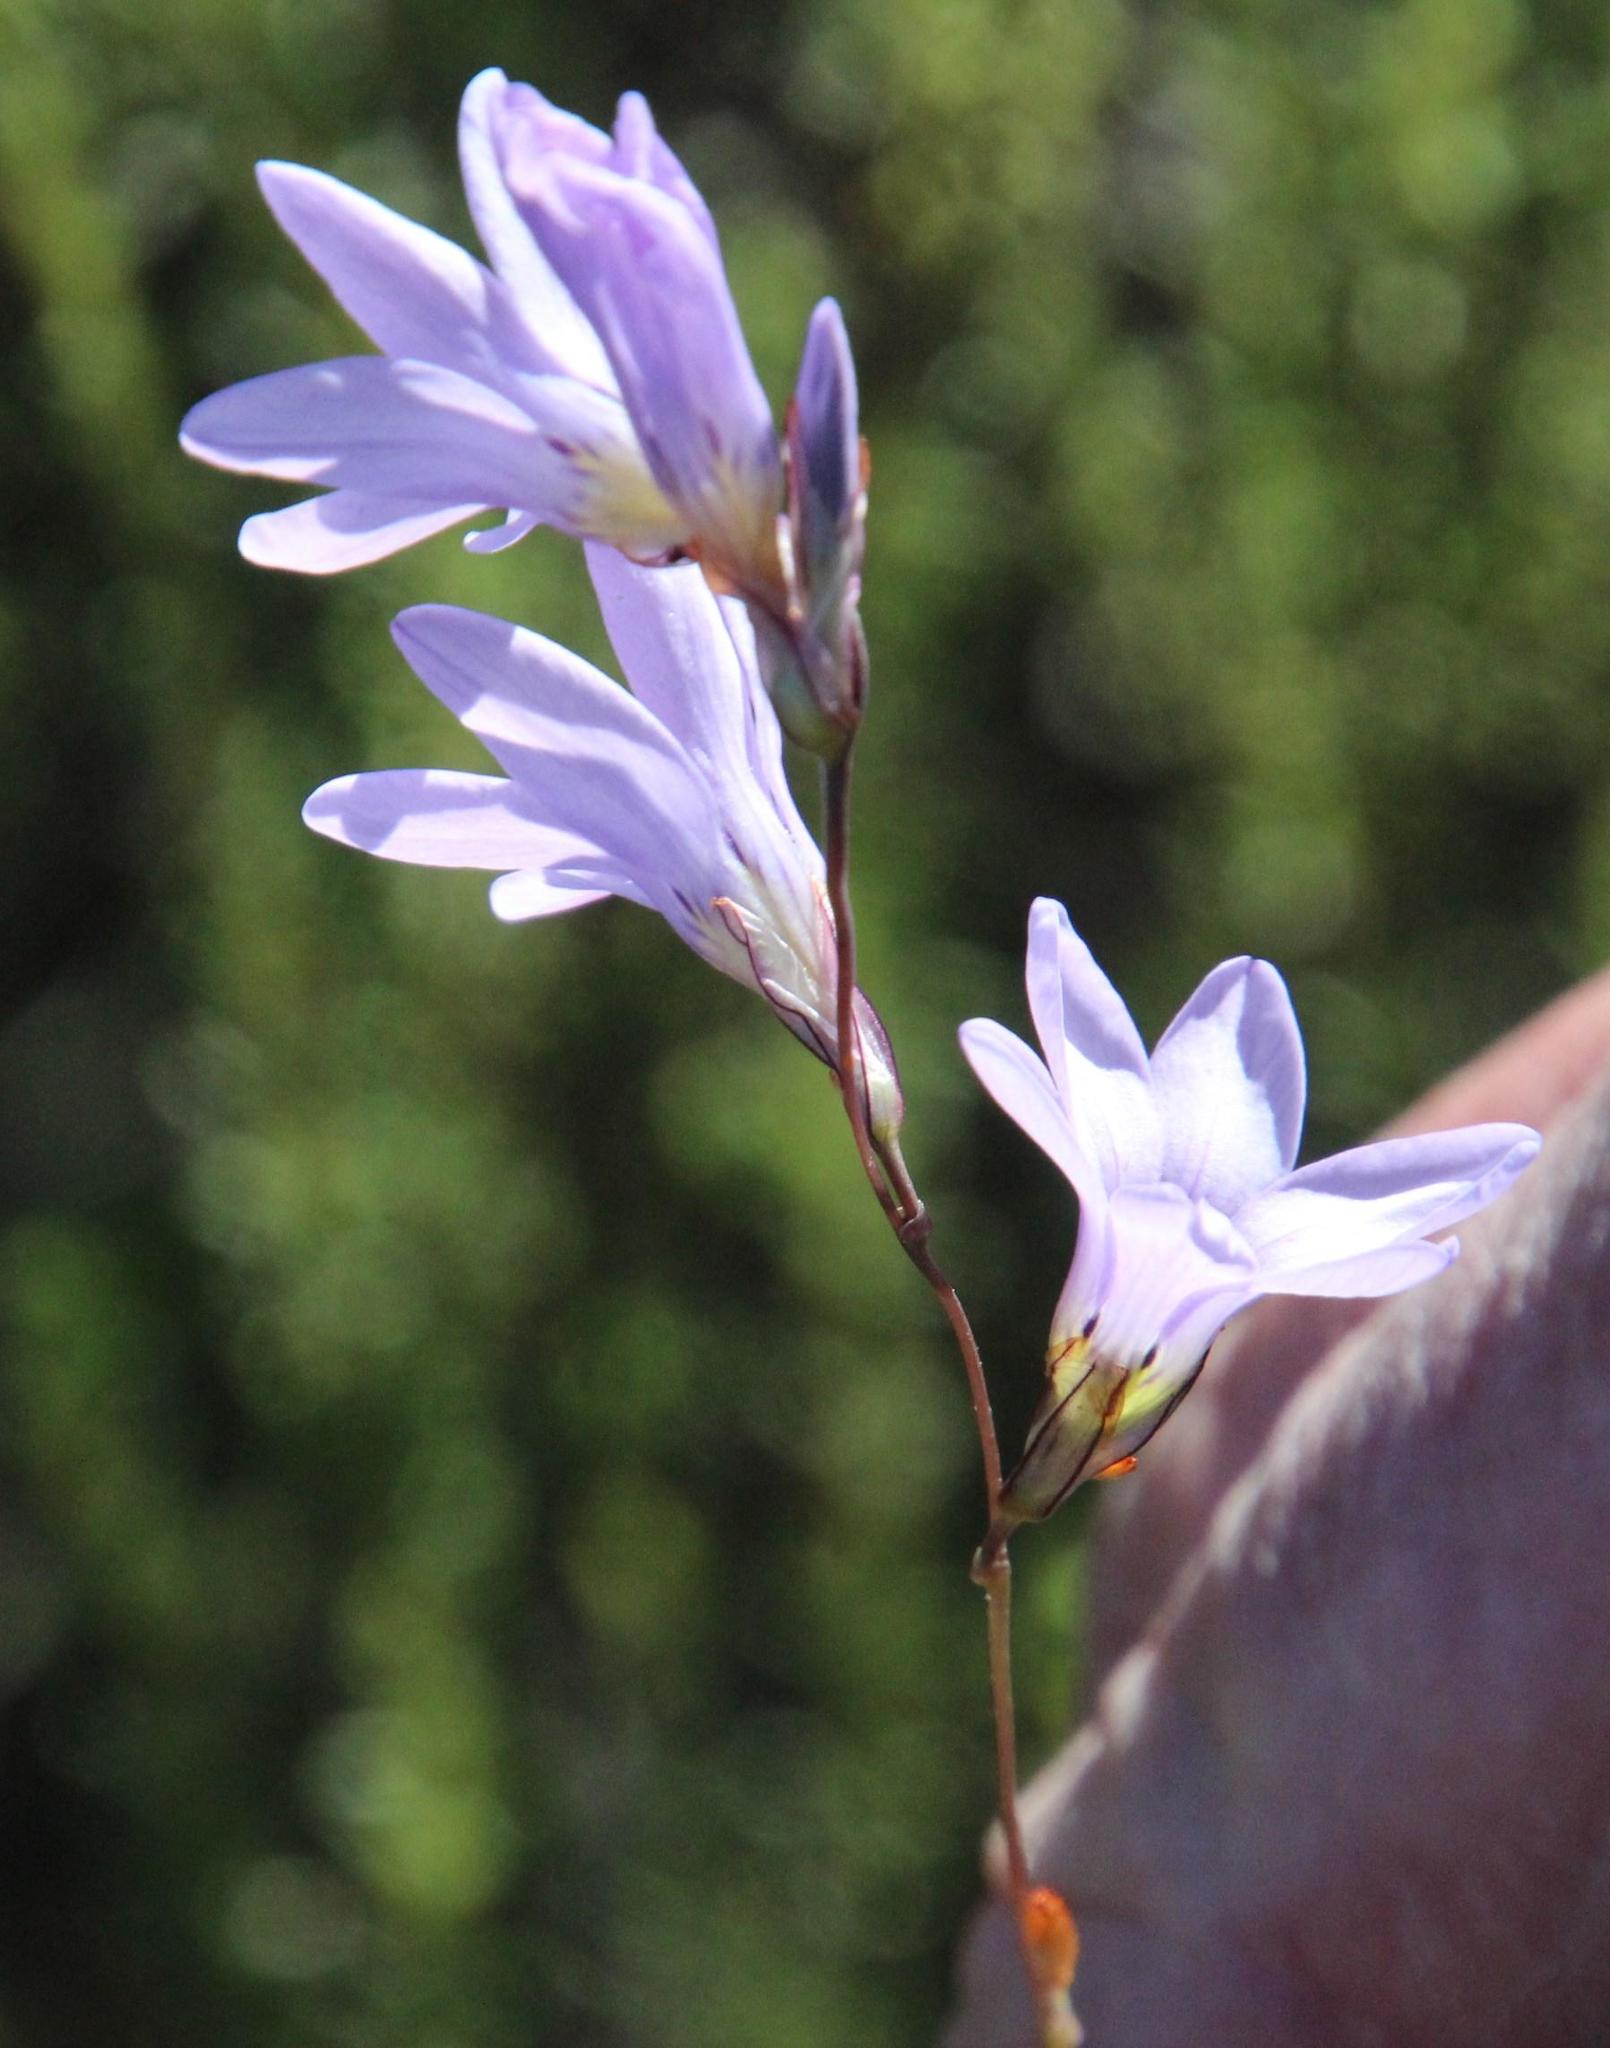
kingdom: Plantae
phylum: Tracheophyta
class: Liliopsida
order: Asparagales
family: Iridaceae
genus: Ixia
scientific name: Ixia rapunculoides
